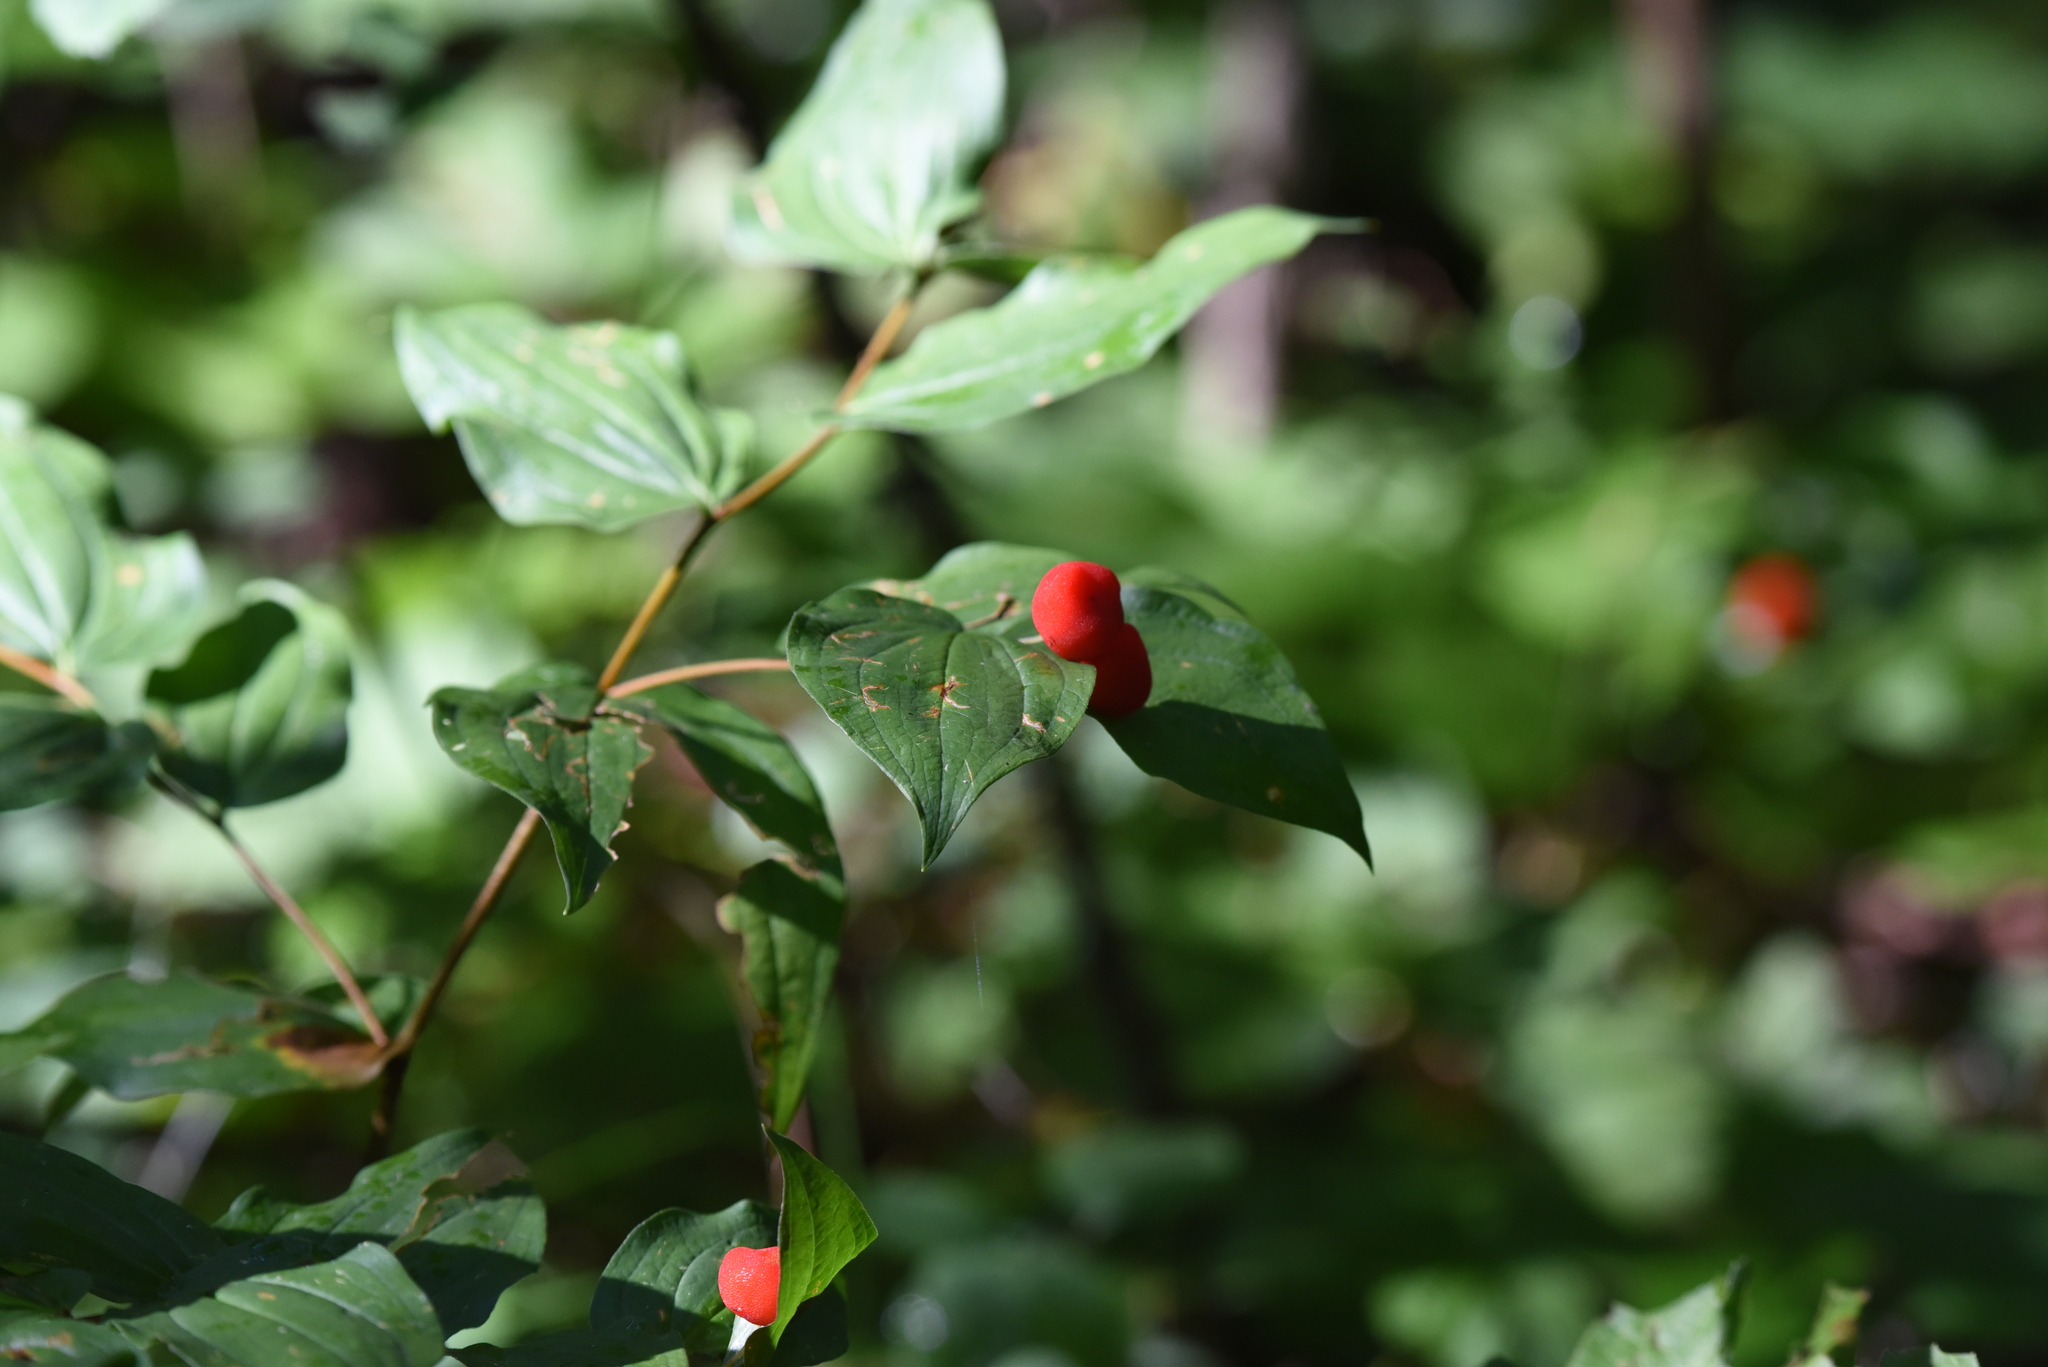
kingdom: Plantae
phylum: Tracheophyta
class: Liliopsida
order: Liliales
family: Liliaceae
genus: Prosartes
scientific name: Prosartes trachycarpa
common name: Rough-fruit fairy-bells
